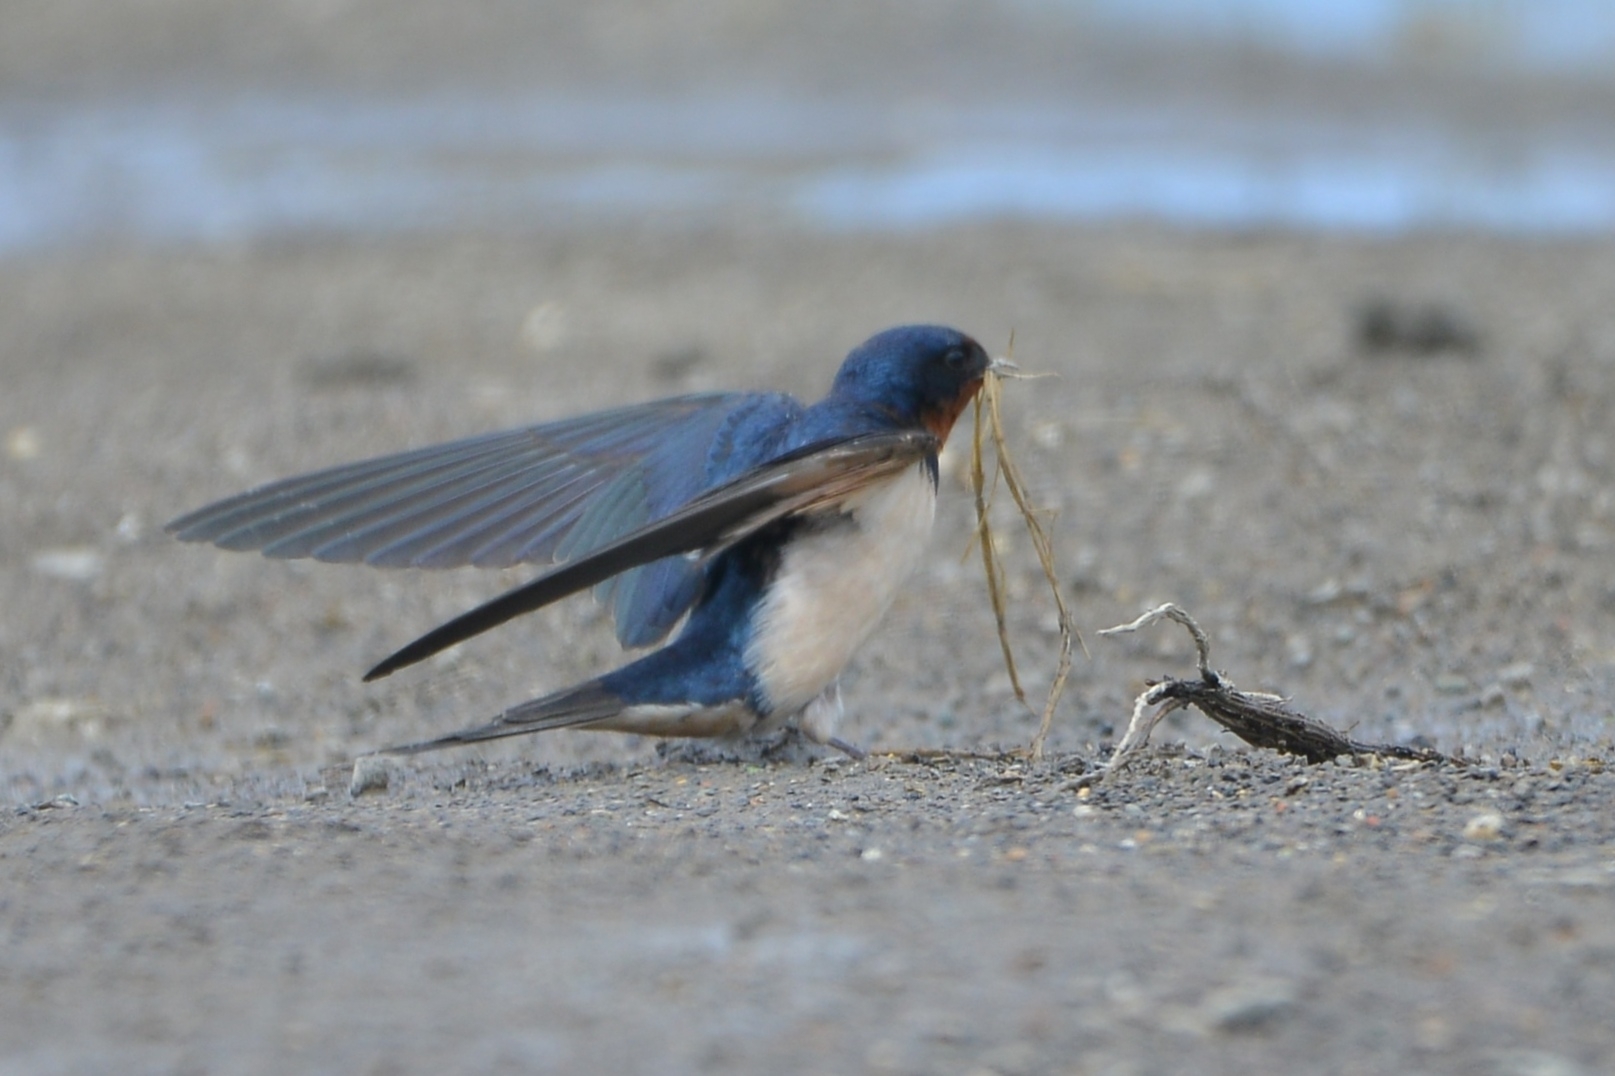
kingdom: Animalia
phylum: Chordata
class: Aves
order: Passeriformes
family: Hirundinidae
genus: Hirundo
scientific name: Hirundo rustica
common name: Barn swallow
